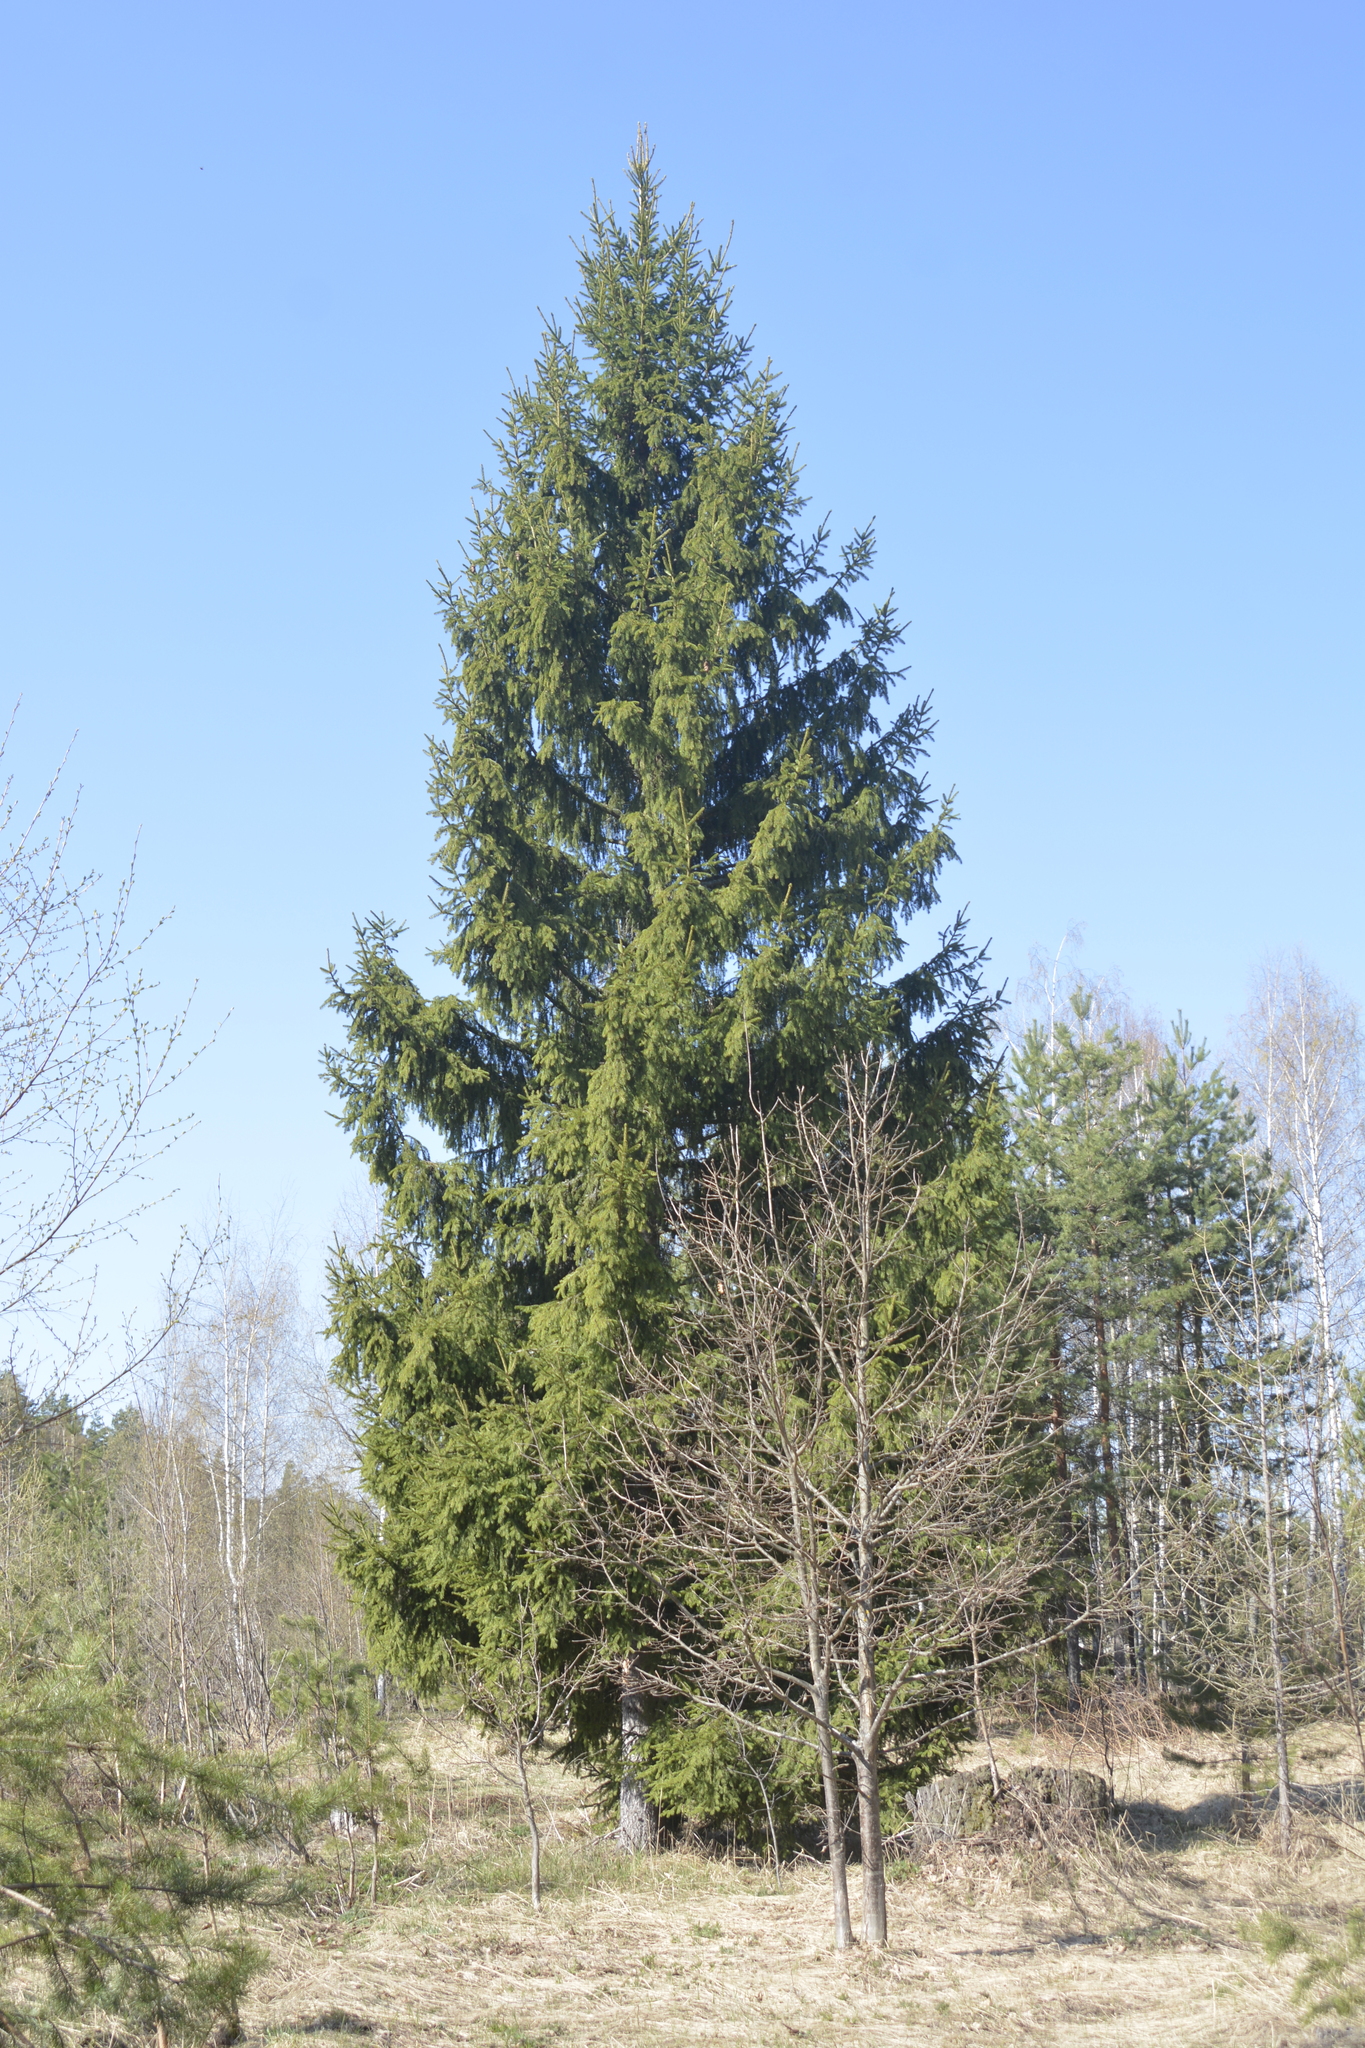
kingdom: Plantae
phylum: Tracheophyta
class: Pinopsida
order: Pinales
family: Pinaceae
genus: Picea
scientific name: Picea abies
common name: Norway spruce
